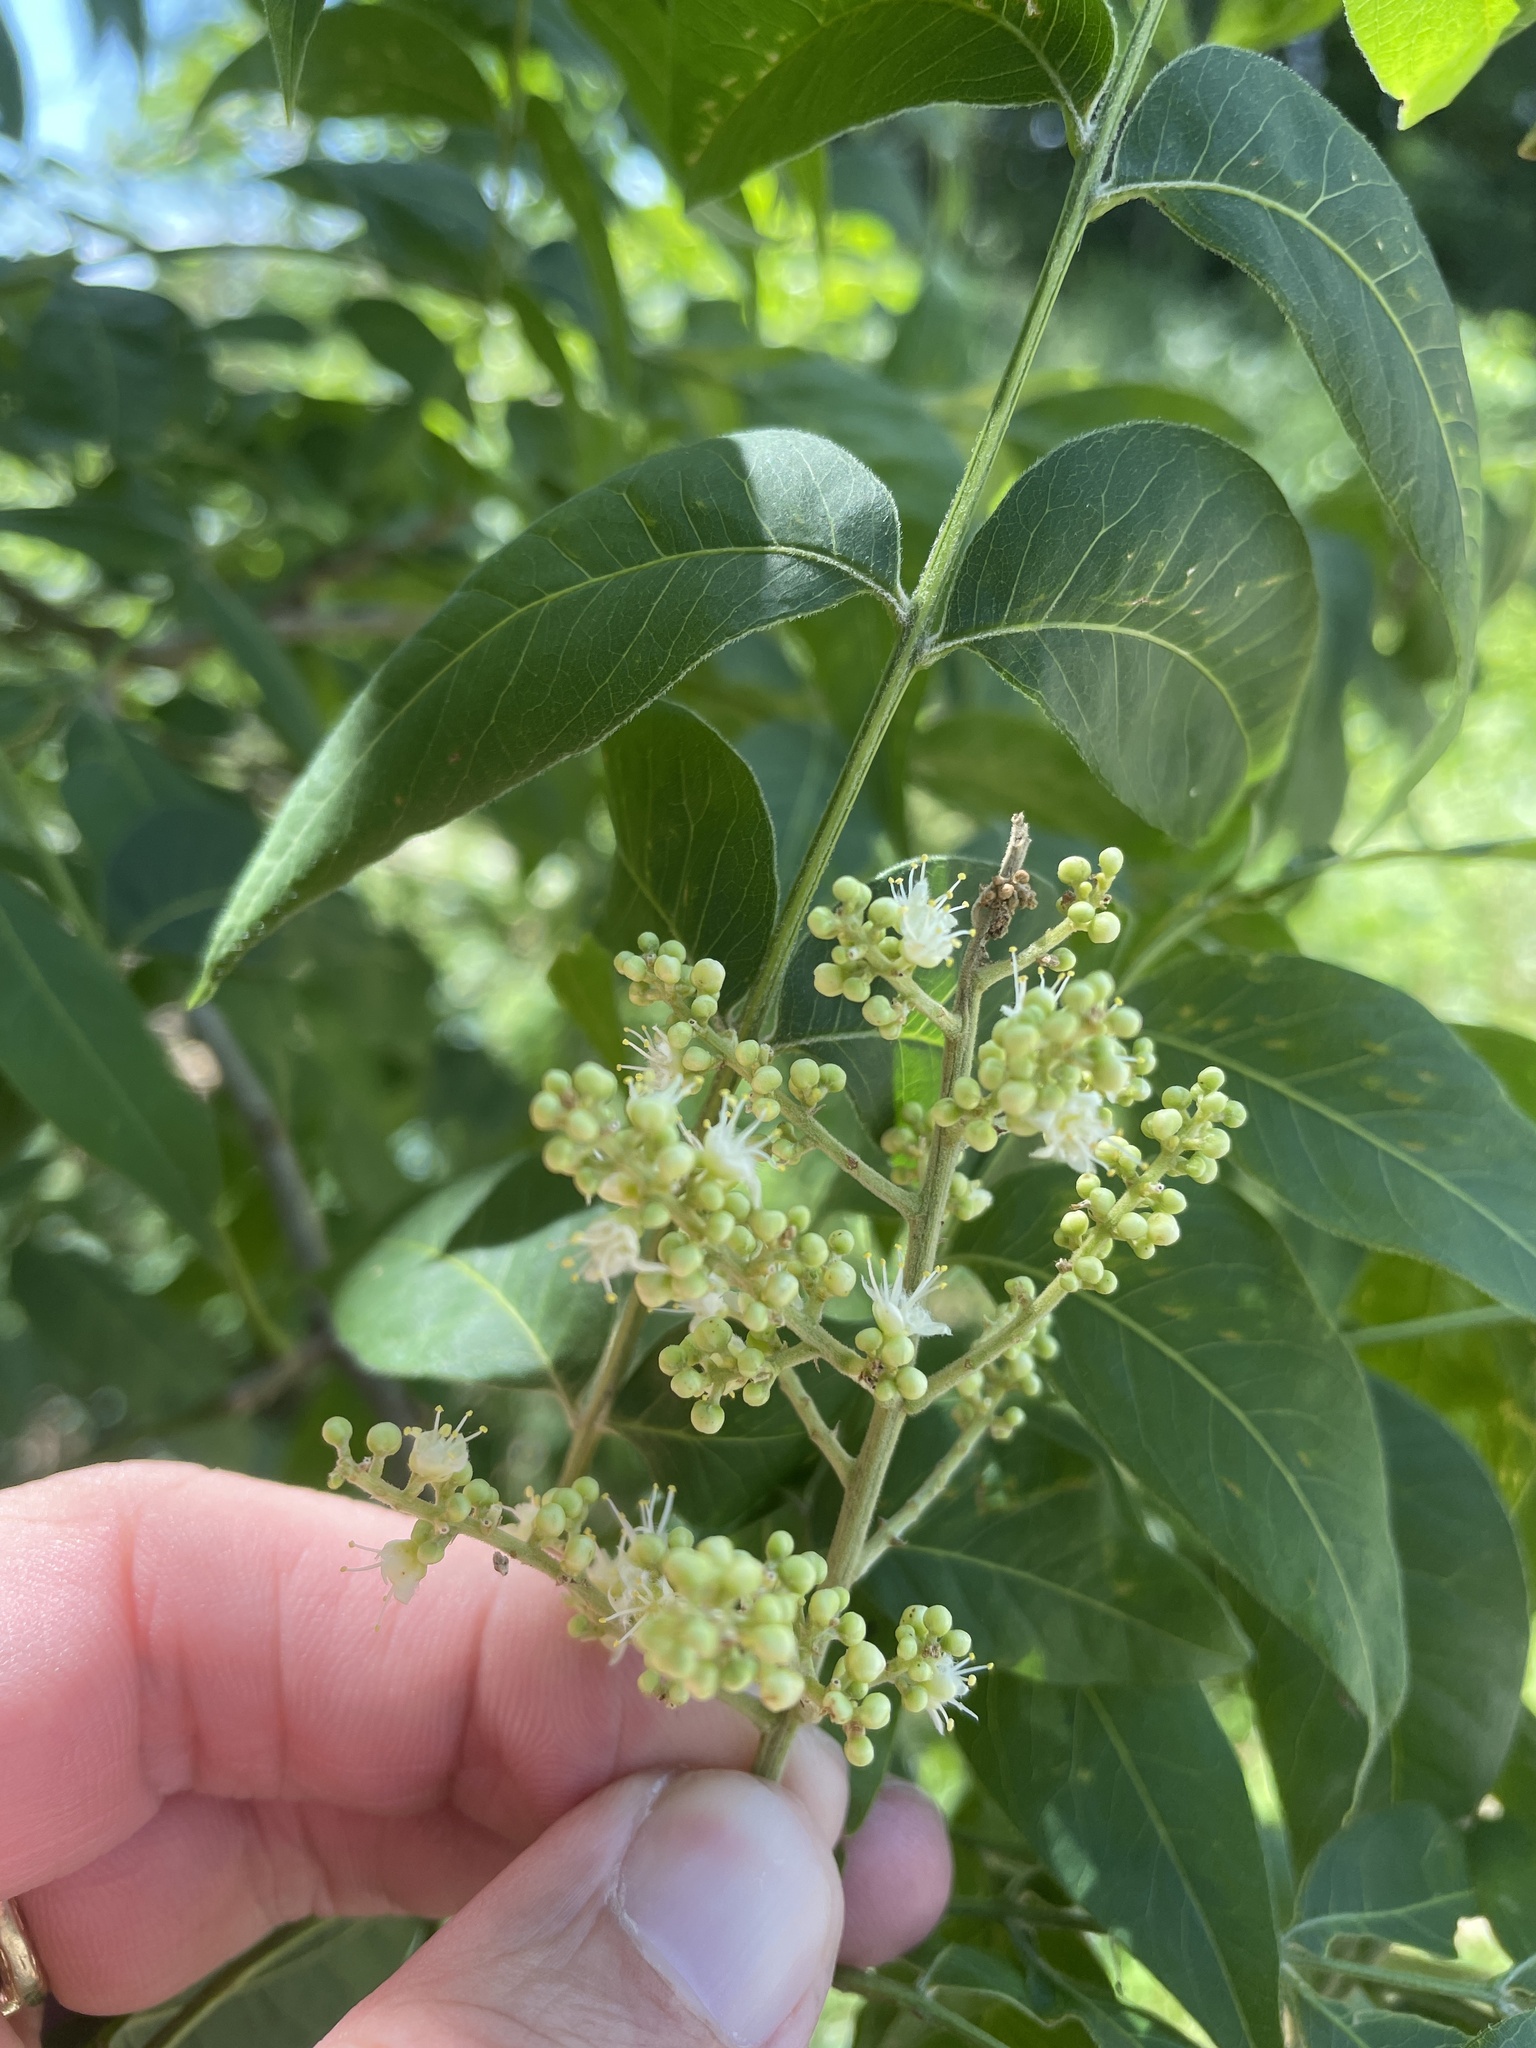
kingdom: Plantae
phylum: Tracheophyta
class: Magnoliopsida
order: Sapindales
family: Sapindaceae
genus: Sapindus
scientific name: Sapindus drummondii
